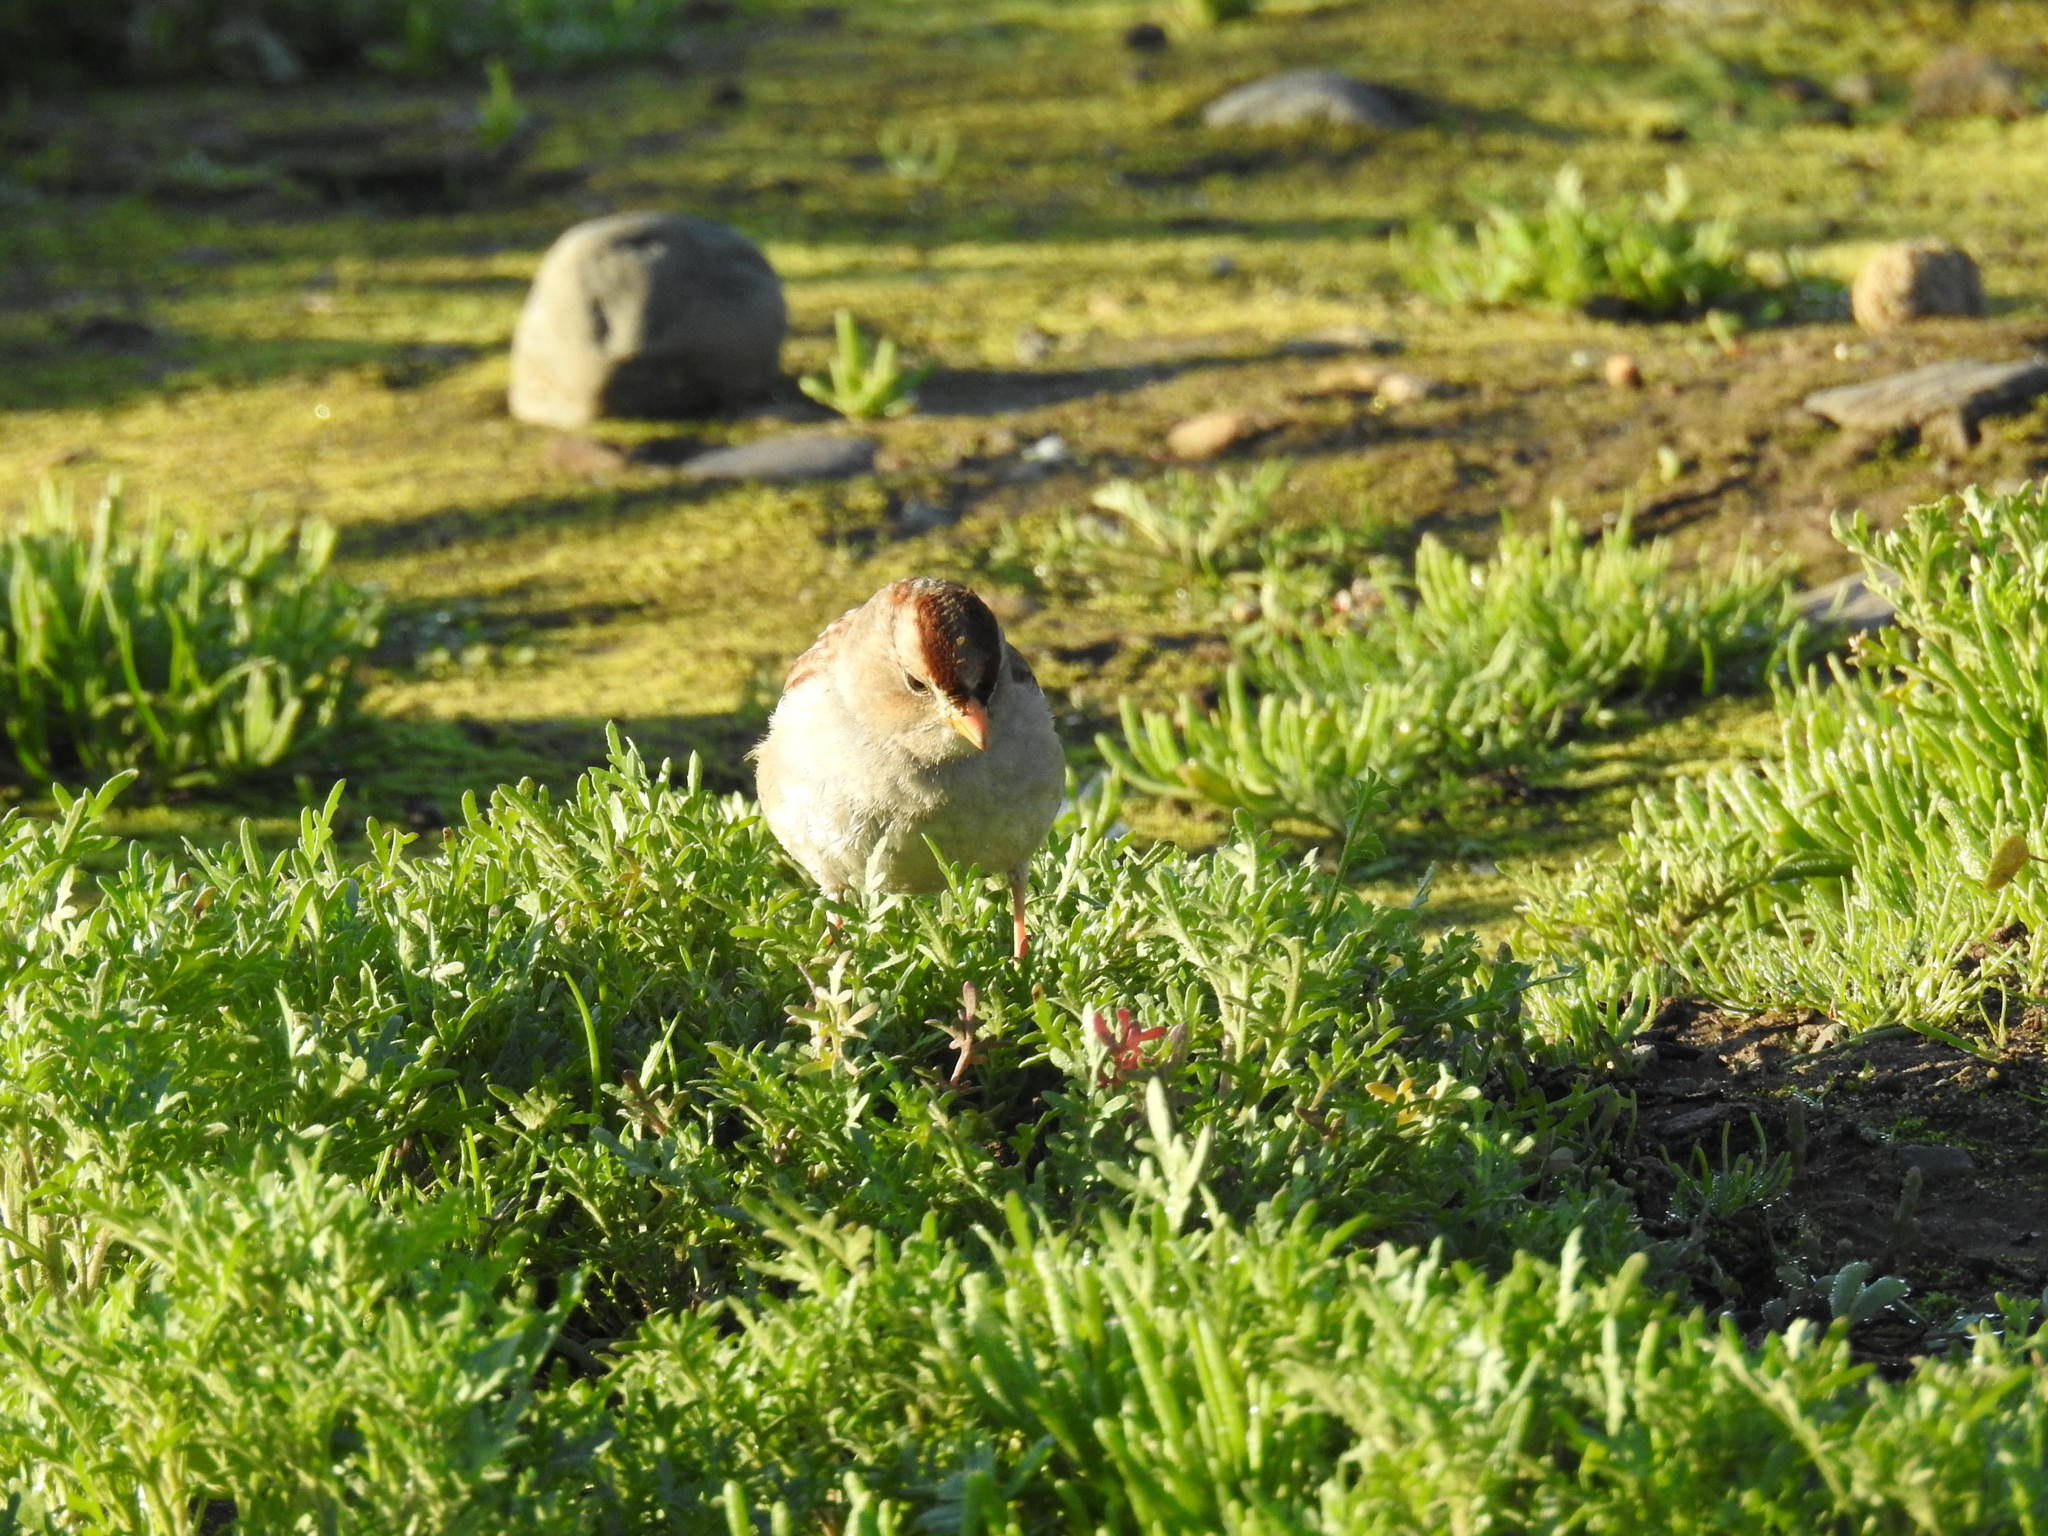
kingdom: Animalia
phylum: Chordata
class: Aves
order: Passeriformes
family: Passerellidae
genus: Zonotrichia
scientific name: Zonotrichia leucophrys
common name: White-crowned sparrow
